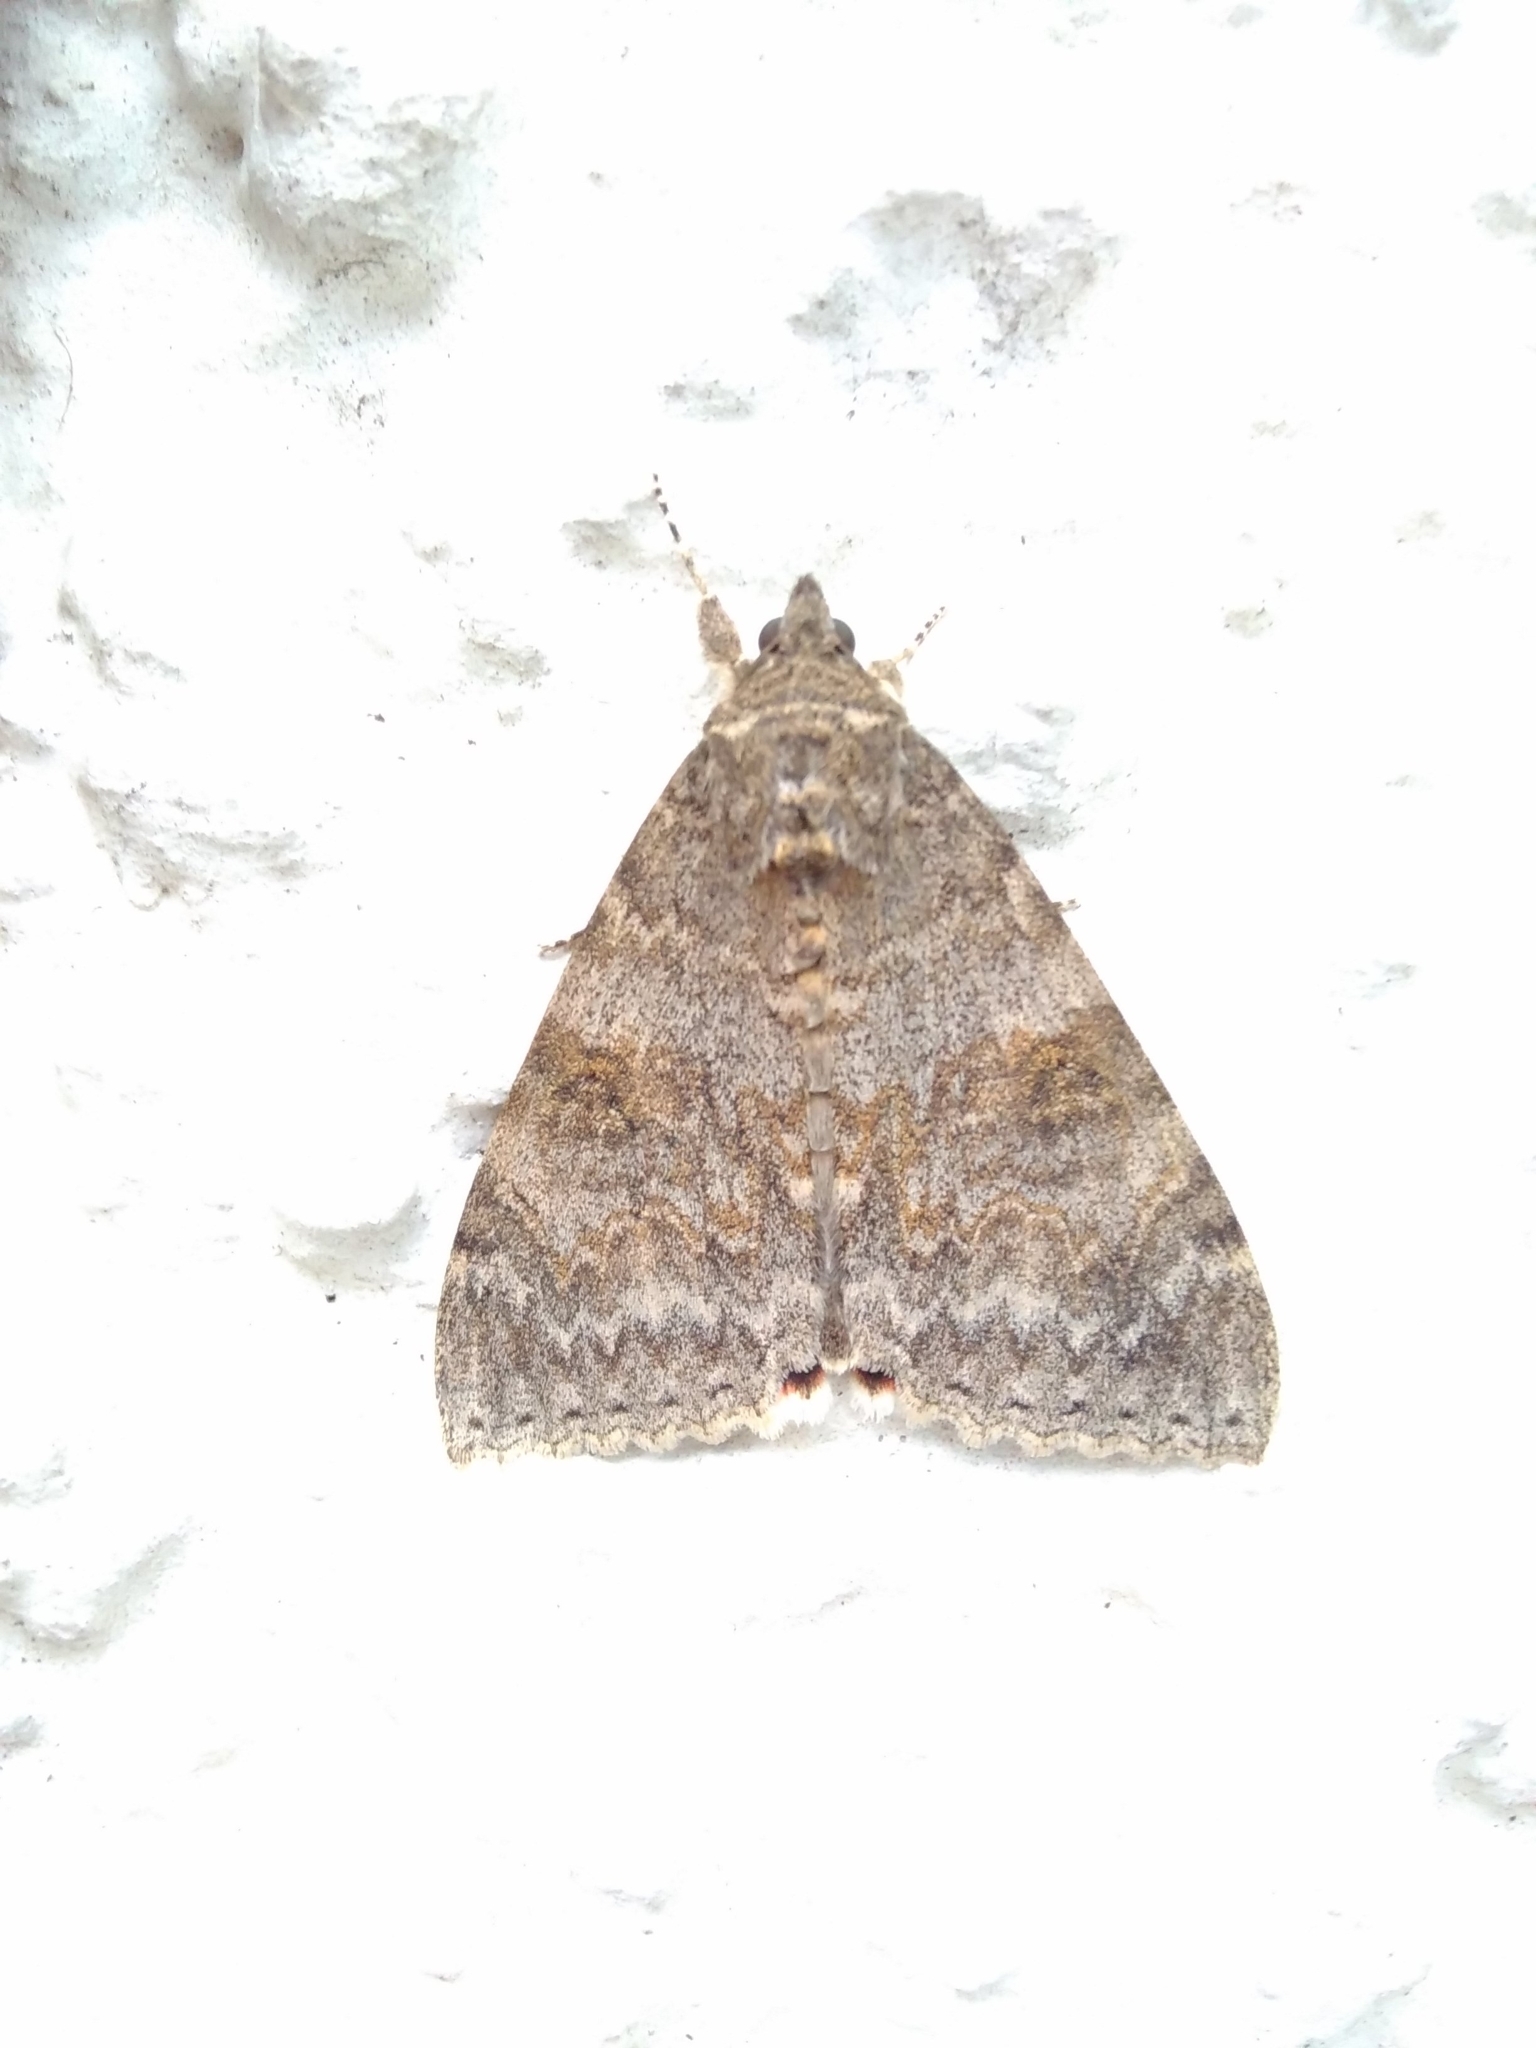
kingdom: Animalia
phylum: Arthropoda
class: Insecta
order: Lepidoptera
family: Erebidae
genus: Catocala
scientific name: Catocala nupta
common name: Red underwing
